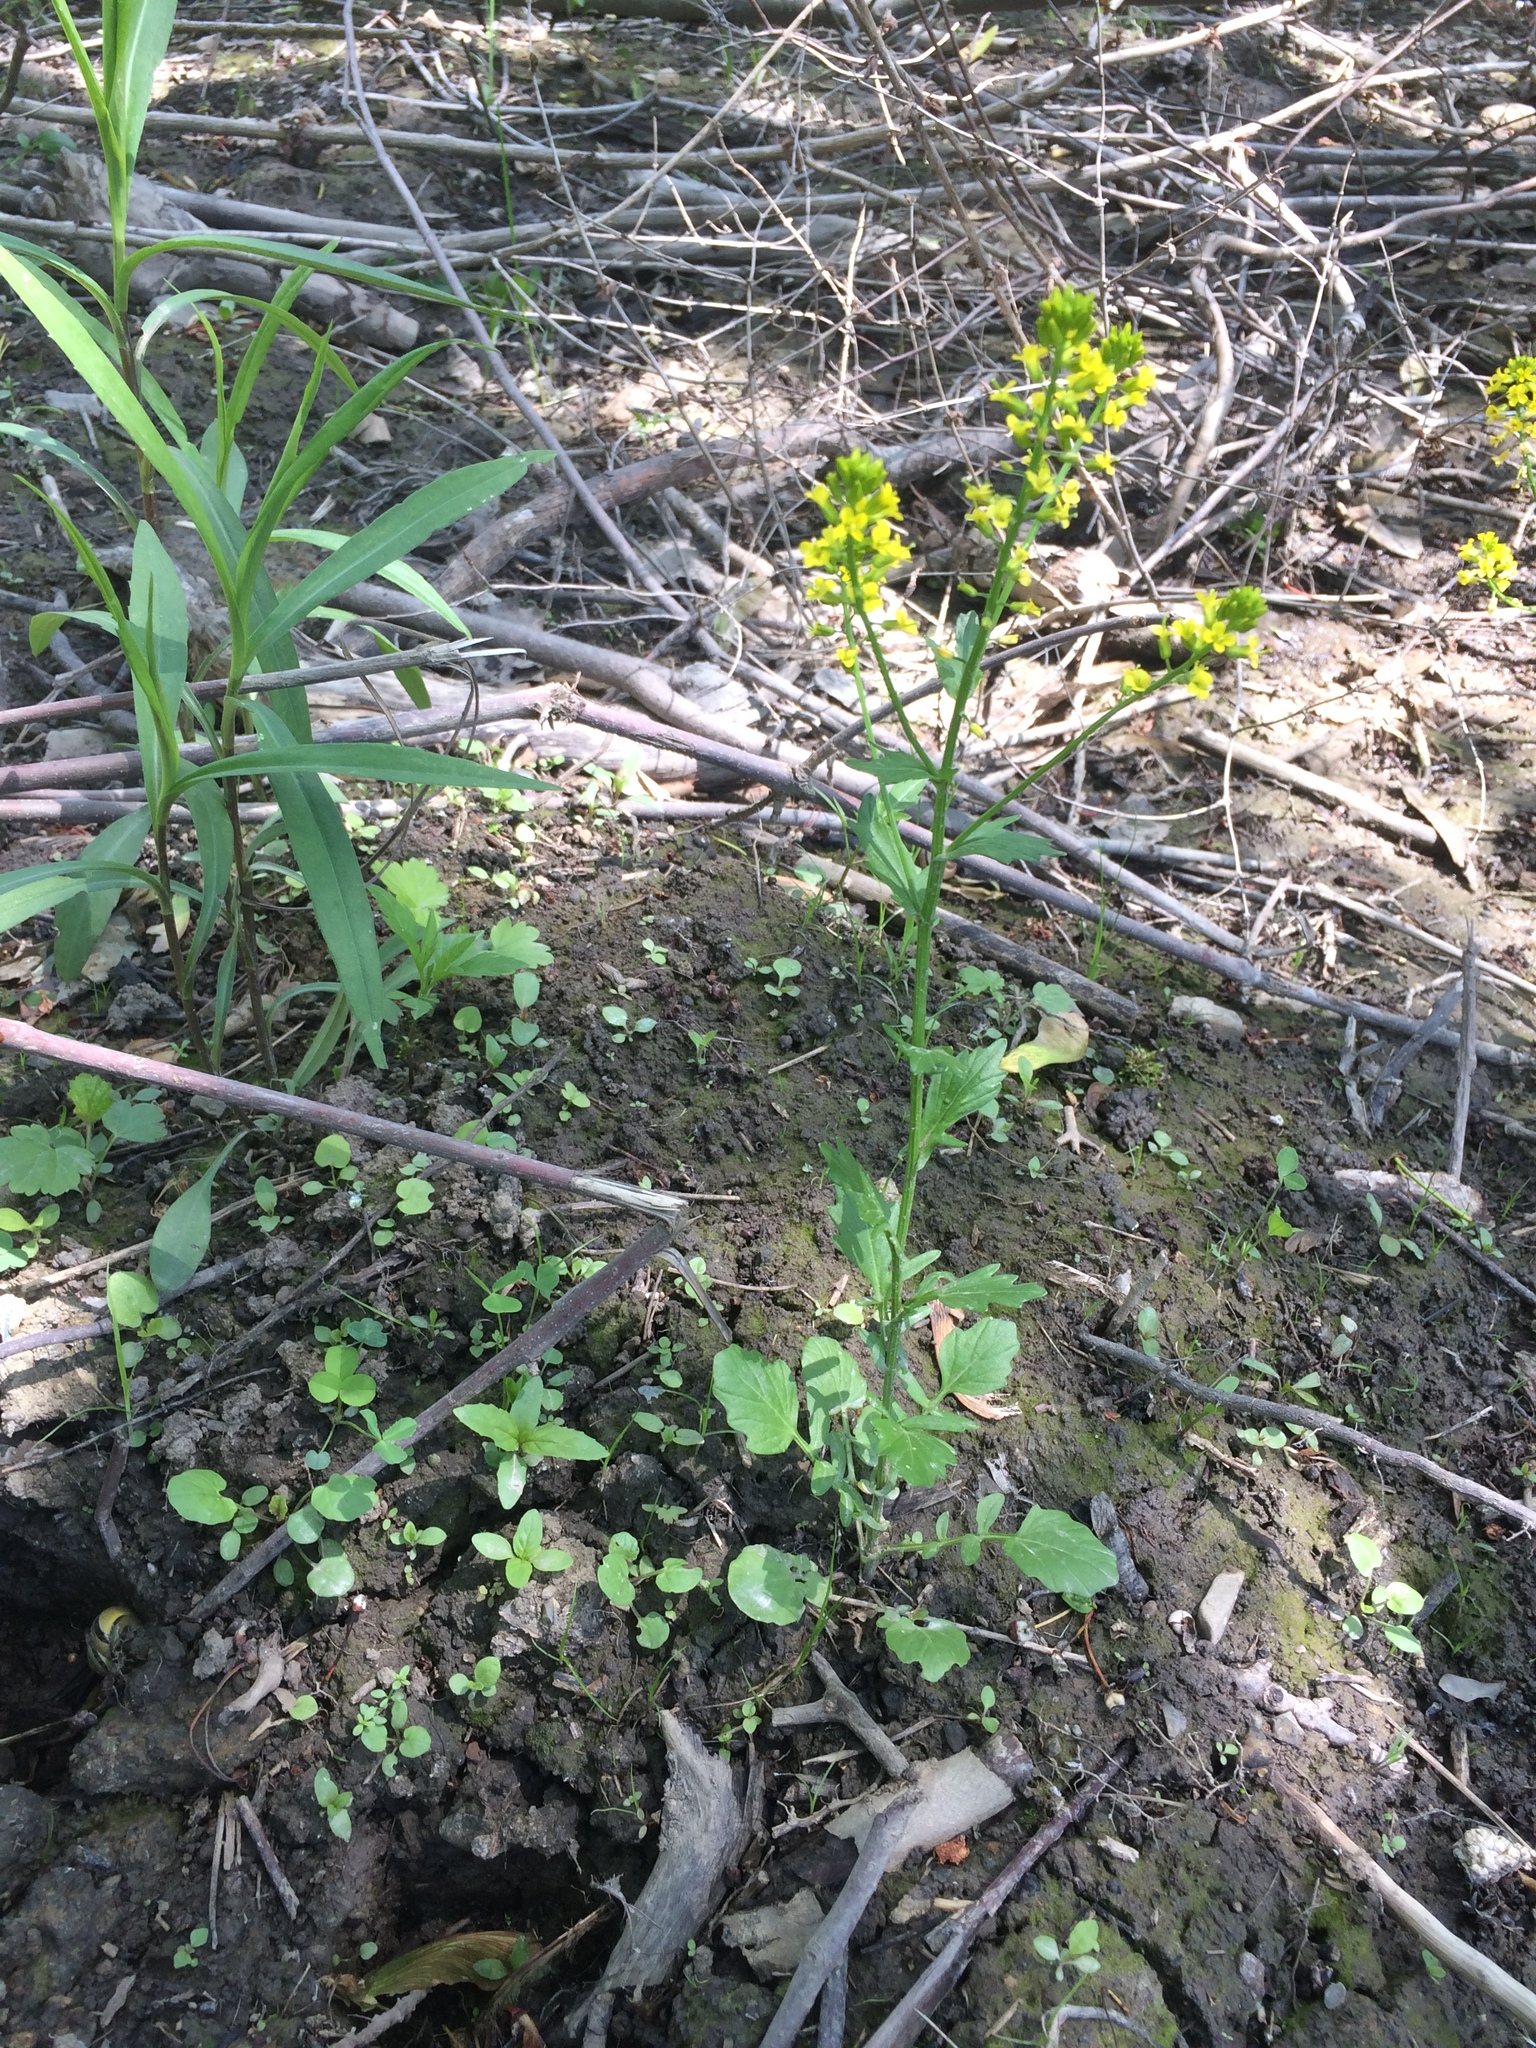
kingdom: Plantae
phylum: Tracheophyta
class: Magnoliopsida
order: Brassicales
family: Brassicaceae
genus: Barbarea
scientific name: Barbarea vulgaris
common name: Cressy-greens
